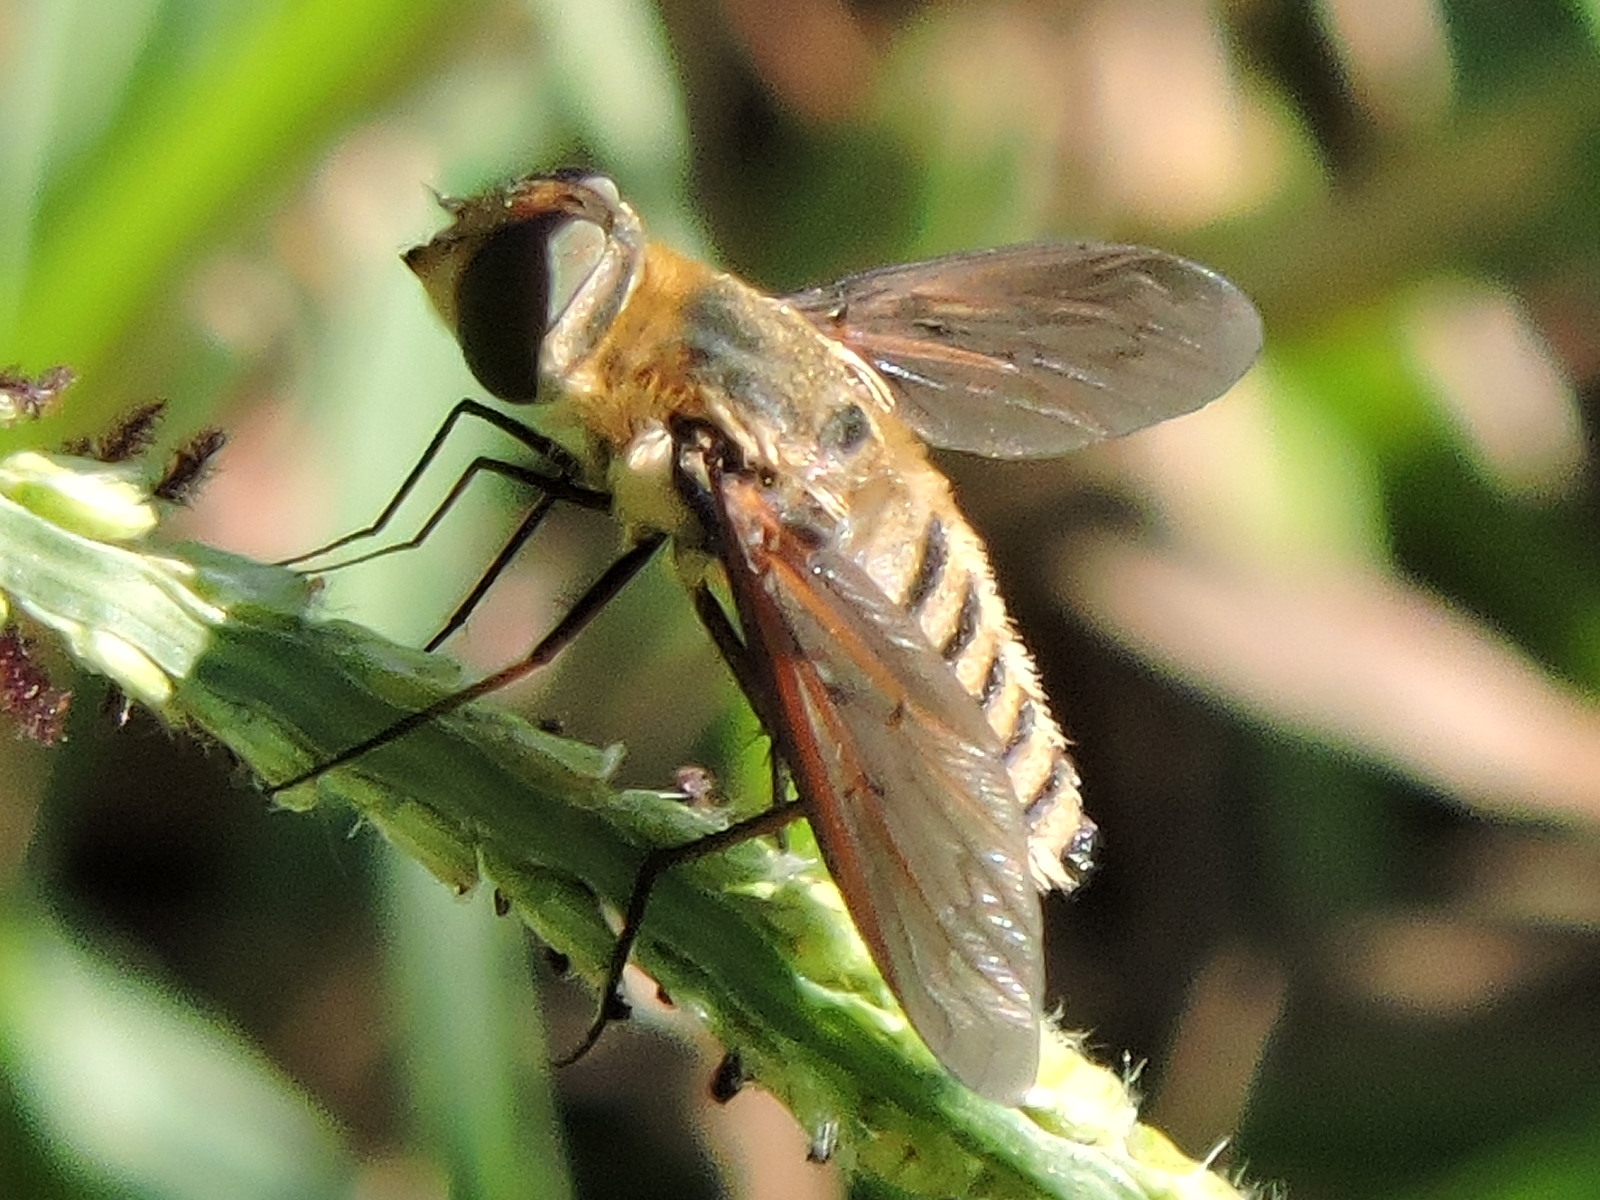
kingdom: Animalia
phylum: Arthropoda
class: Insecta
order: Diptera
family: Bombyliidae
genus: Poecilanthrax
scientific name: Poecilanthrax lucifer
